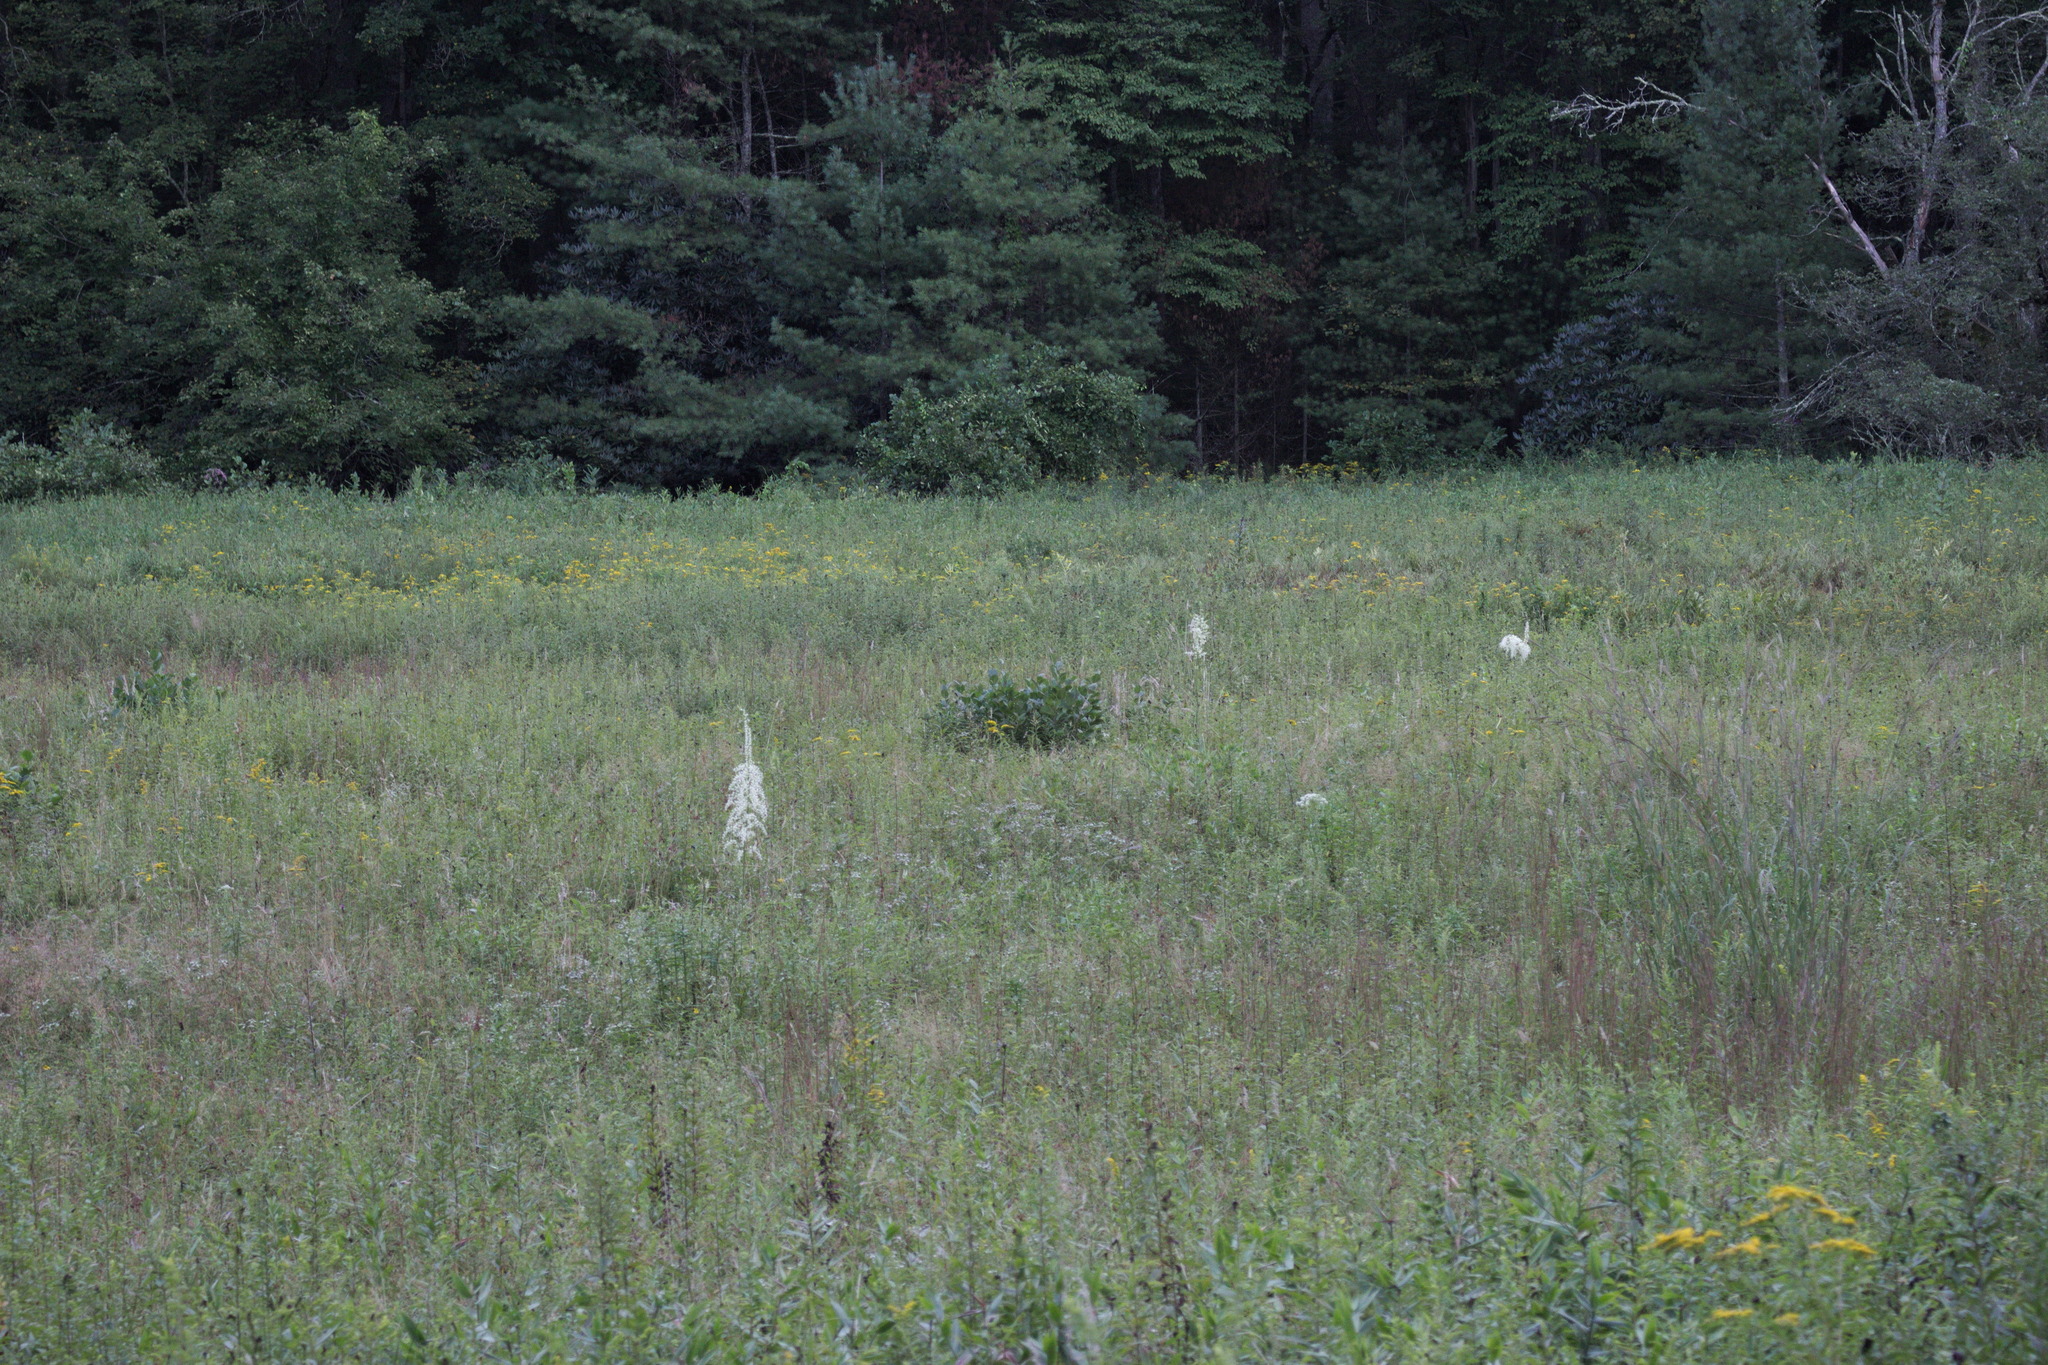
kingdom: Plantae
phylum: Tracheophyta
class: Liliopsida
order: Liliales
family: Melanthiaceae
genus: Stenanthium
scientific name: Stenanthium gramineum
